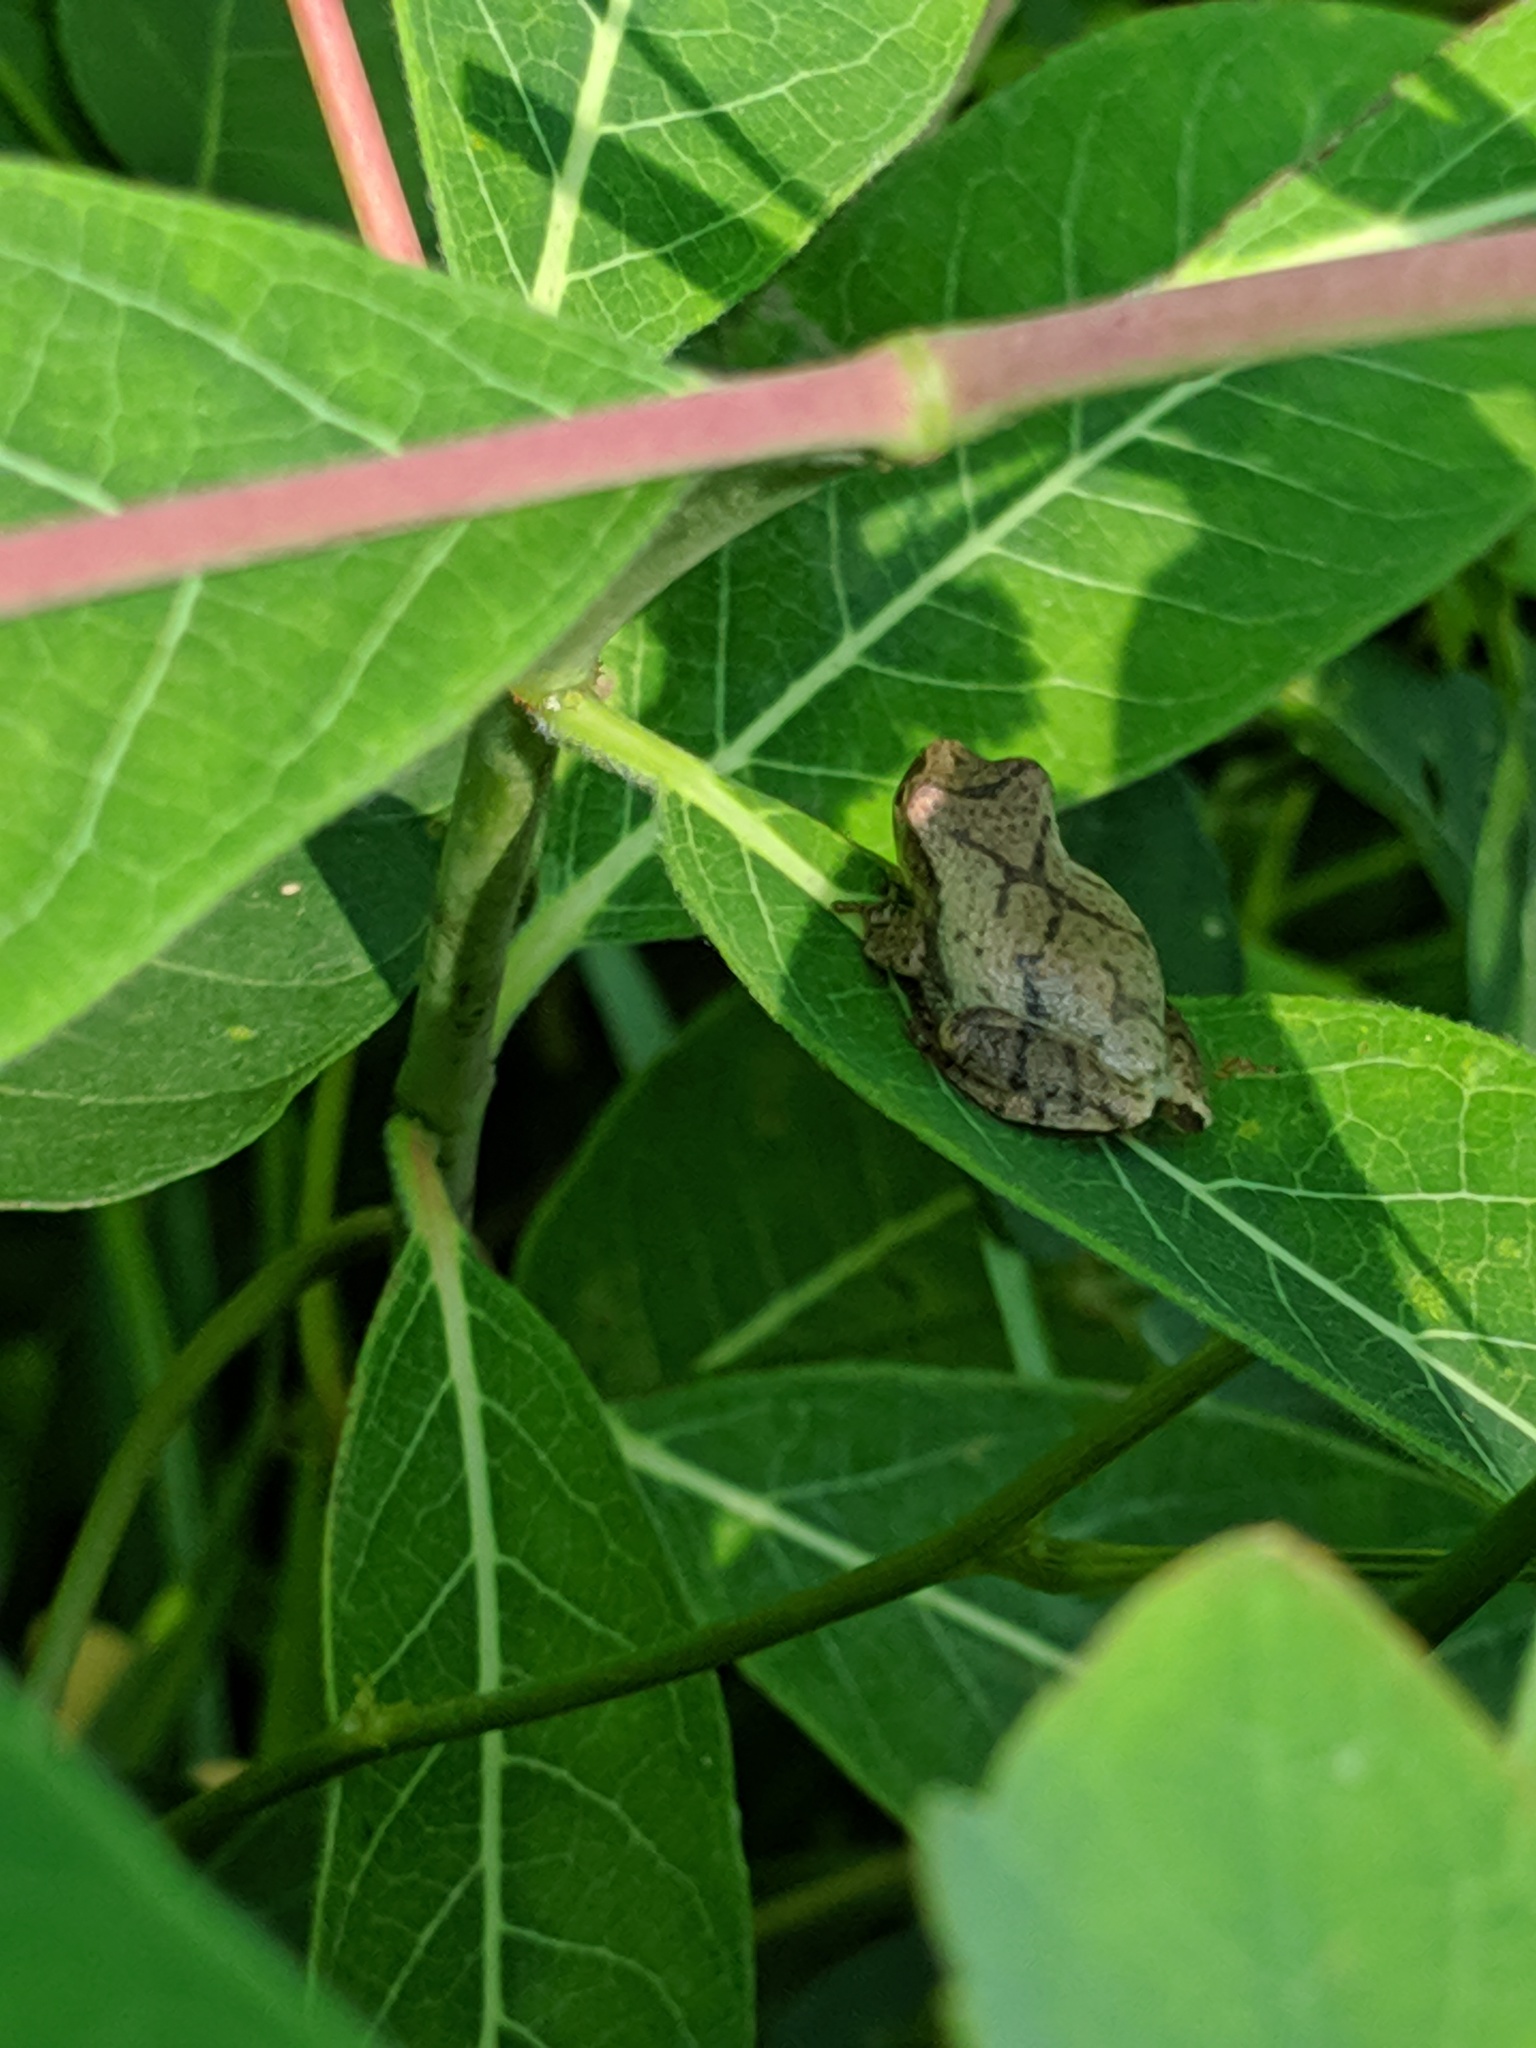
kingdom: Animalia
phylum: Chordata
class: Amphibia
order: Anura
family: Hylidae
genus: Pseudacris
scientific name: Pseudacris crucifer
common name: Spring peeper
